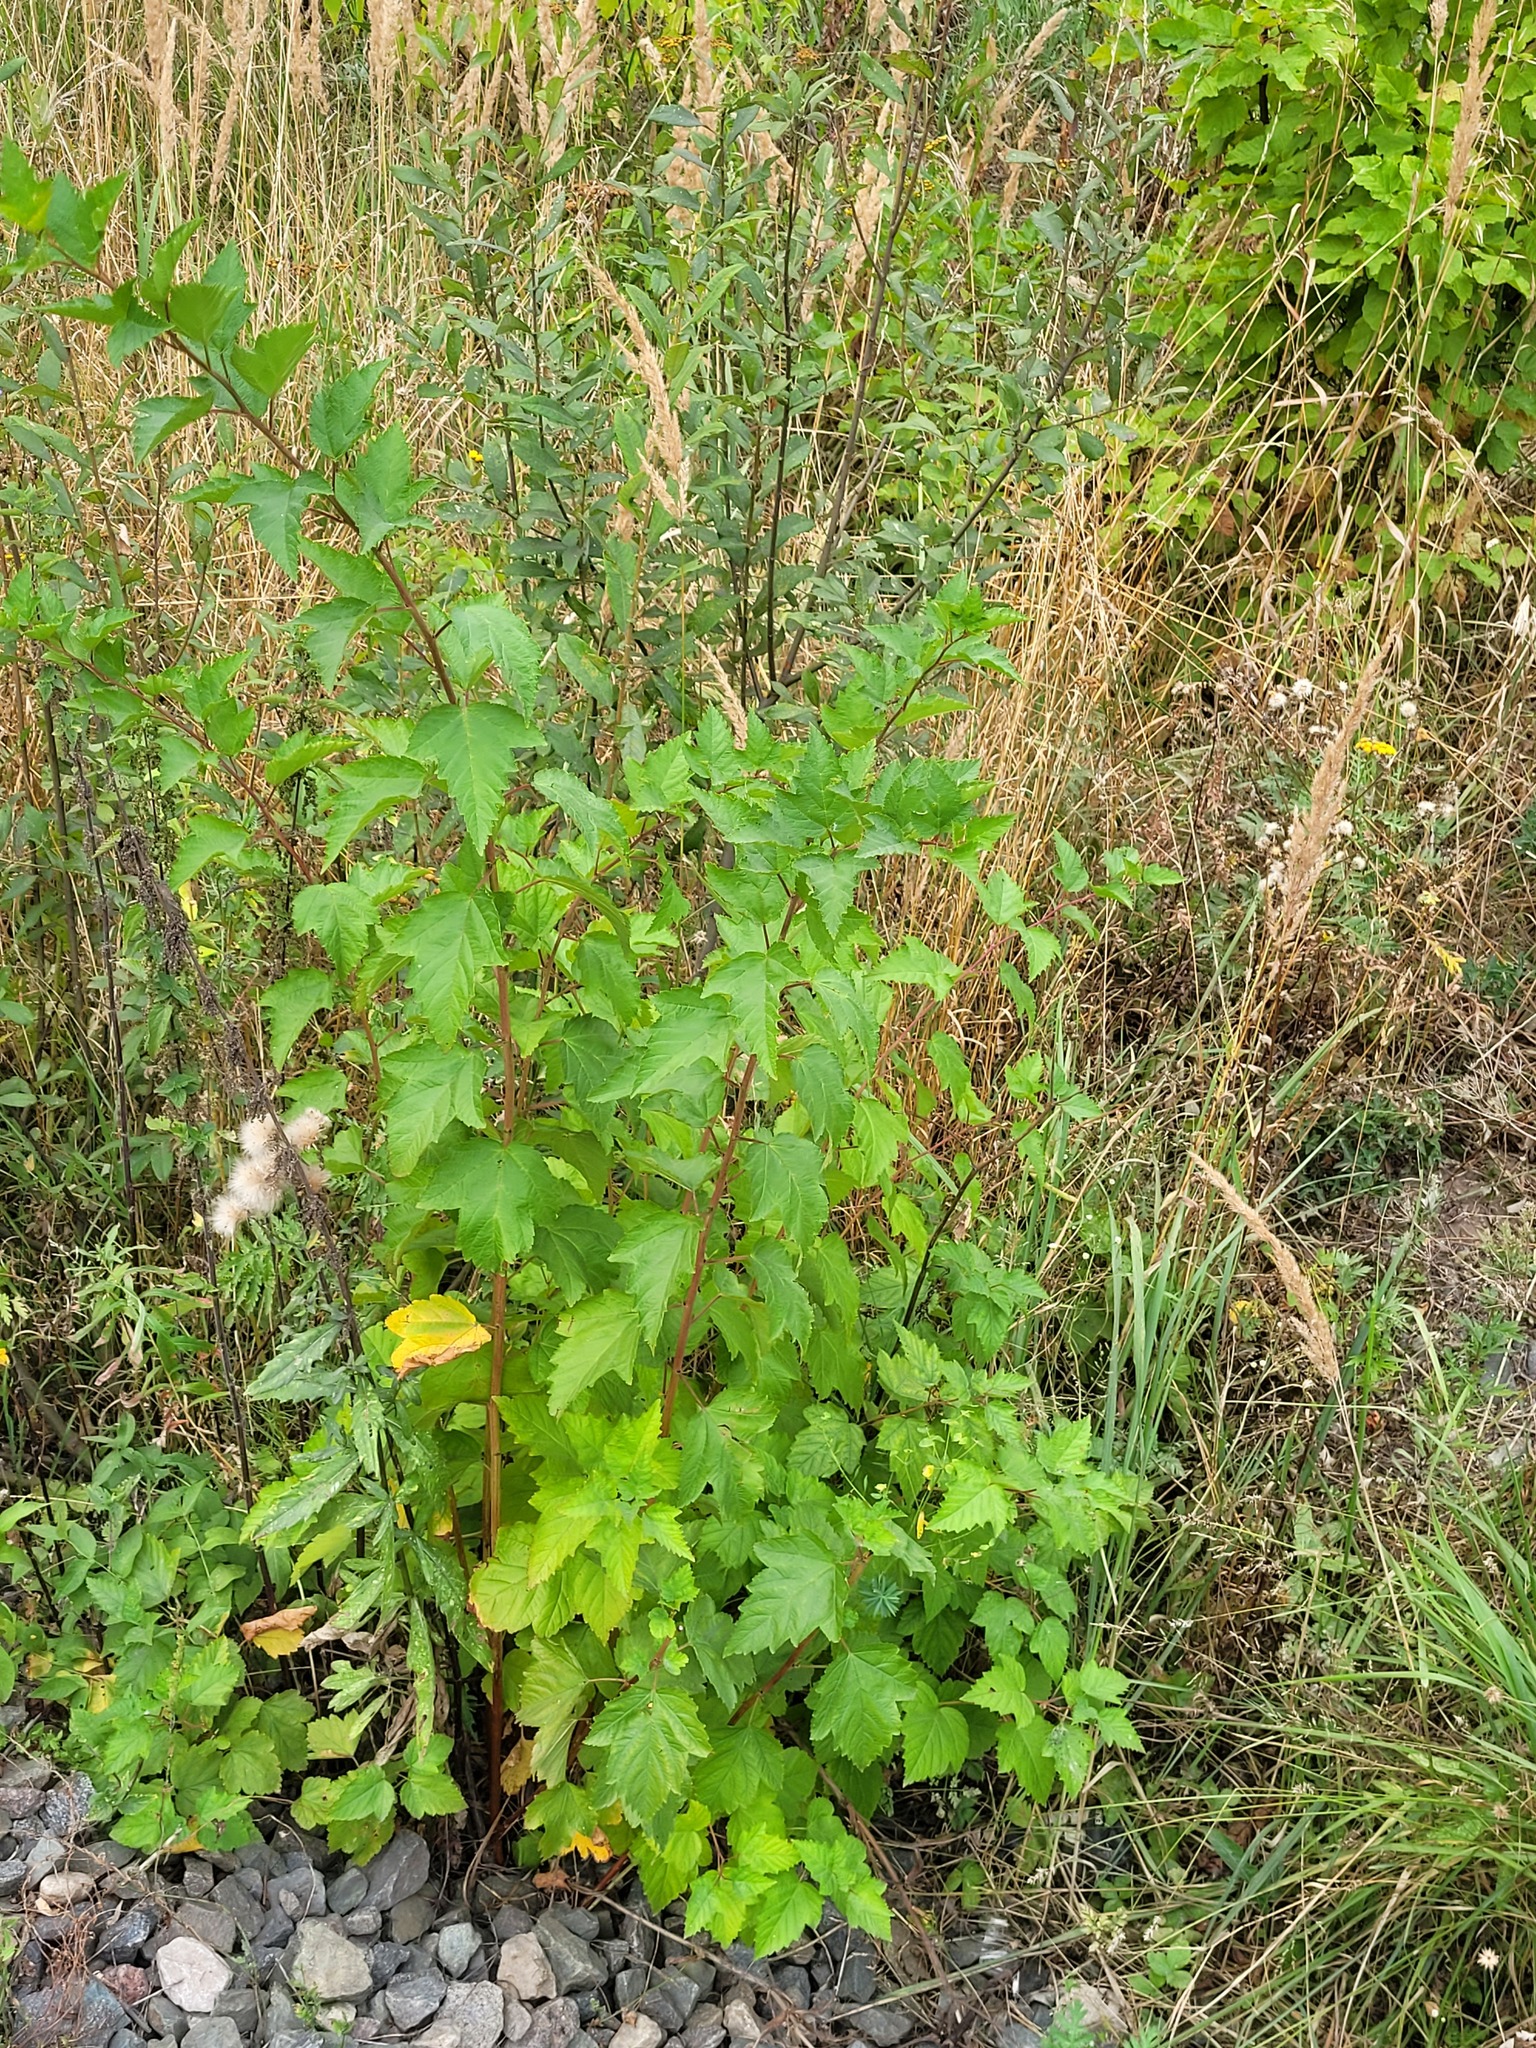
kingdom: Plantae
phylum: Tracheophyta
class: Magnoliopsida
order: Rosales
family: Rosaceae
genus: Physocarpus
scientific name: Physocarpus opulifolius
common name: Ninebark
